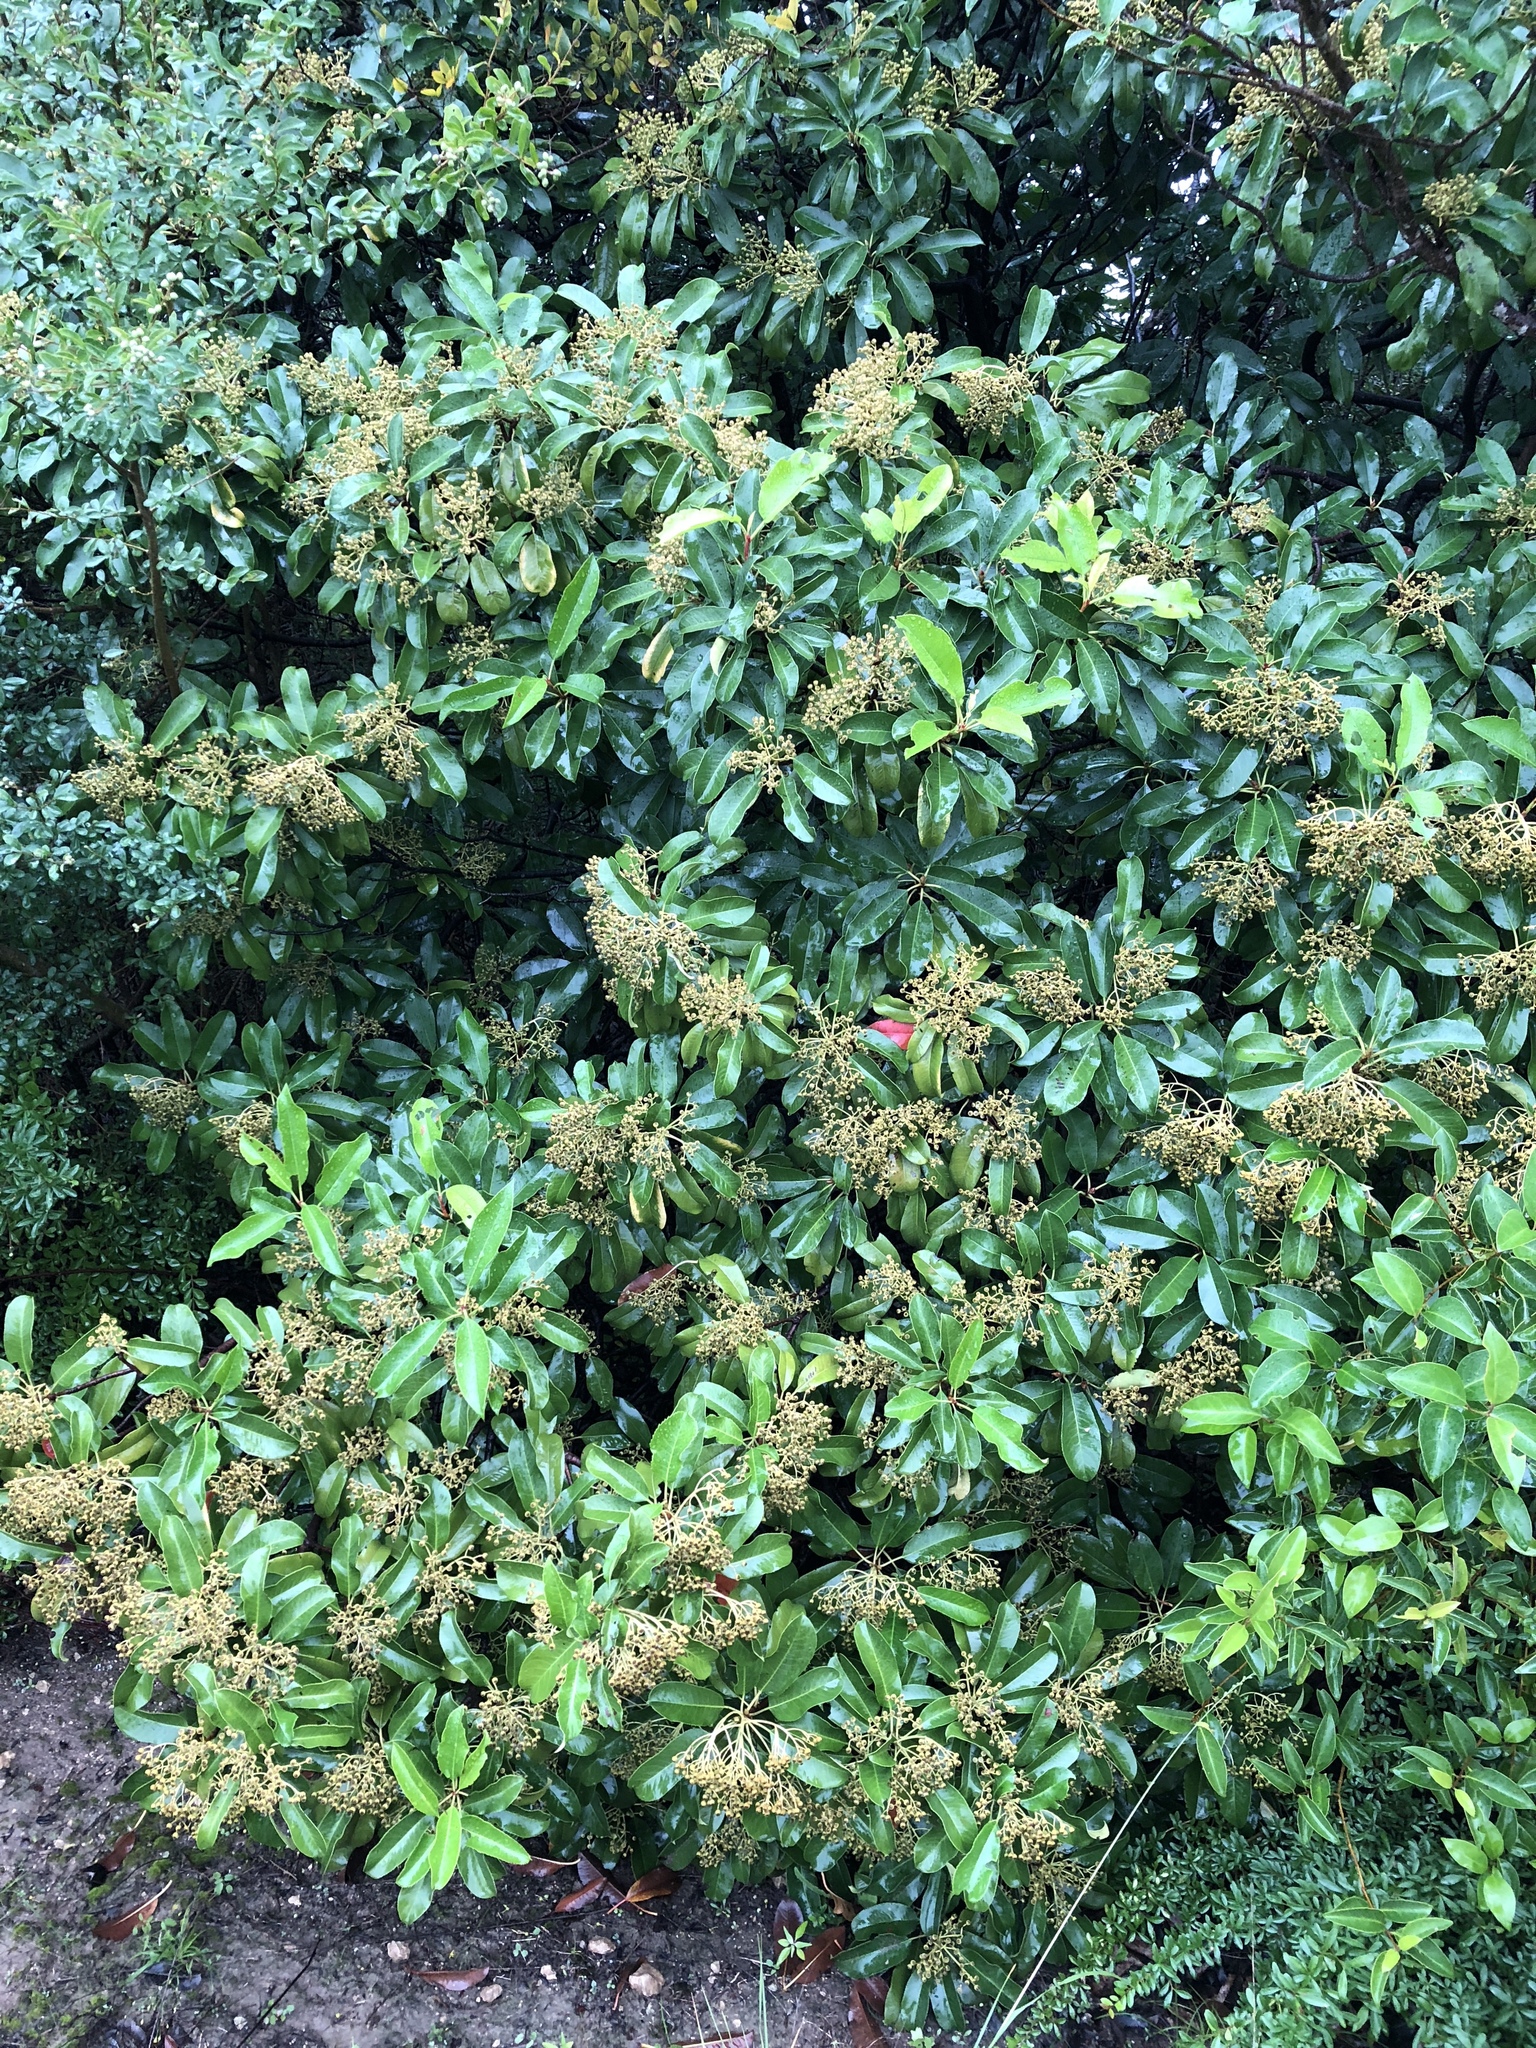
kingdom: Plantae
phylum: Tracheophyta
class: Magnoliopsida
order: Rosales
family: Rosaceae
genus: Photinia
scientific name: Photinia serratifolia
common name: Taiwanese photinia
